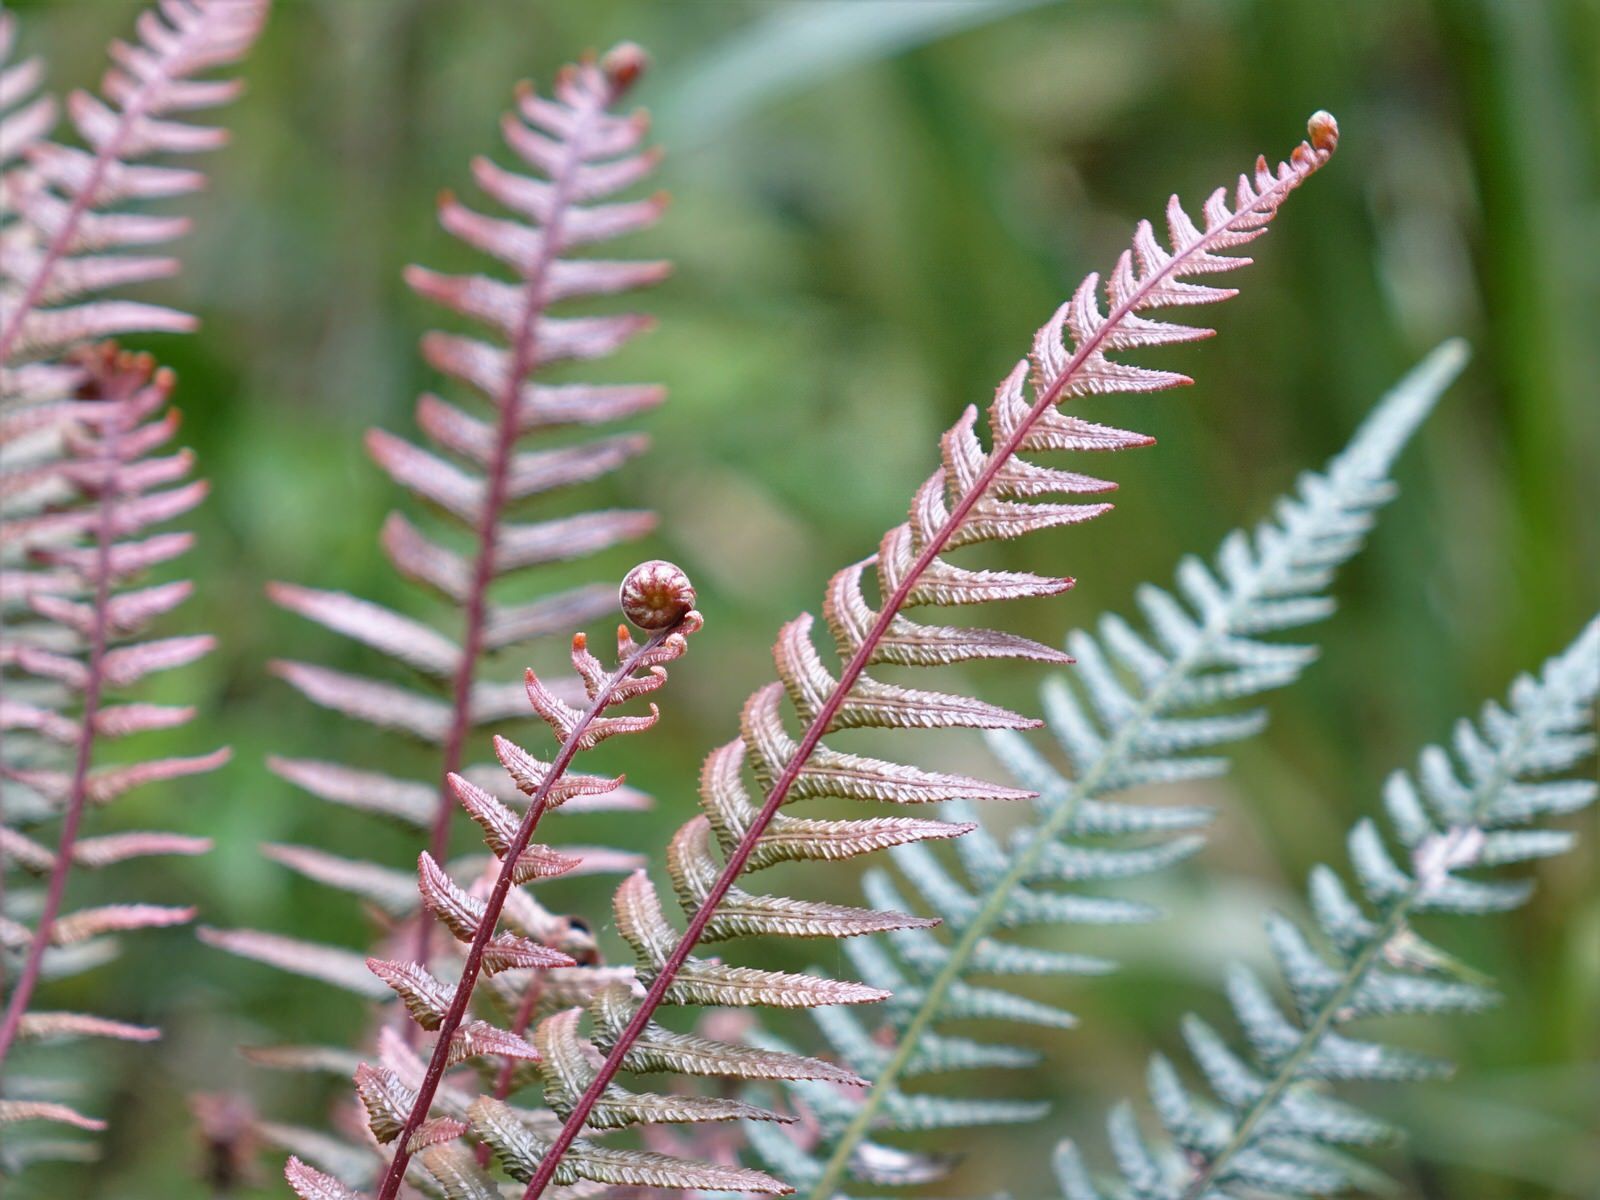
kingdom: Plantae
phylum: Tracheophyta
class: Polypodiopsida
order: Polypodiales
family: Blechnaceae
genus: Doodia
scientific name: Doodia australis
